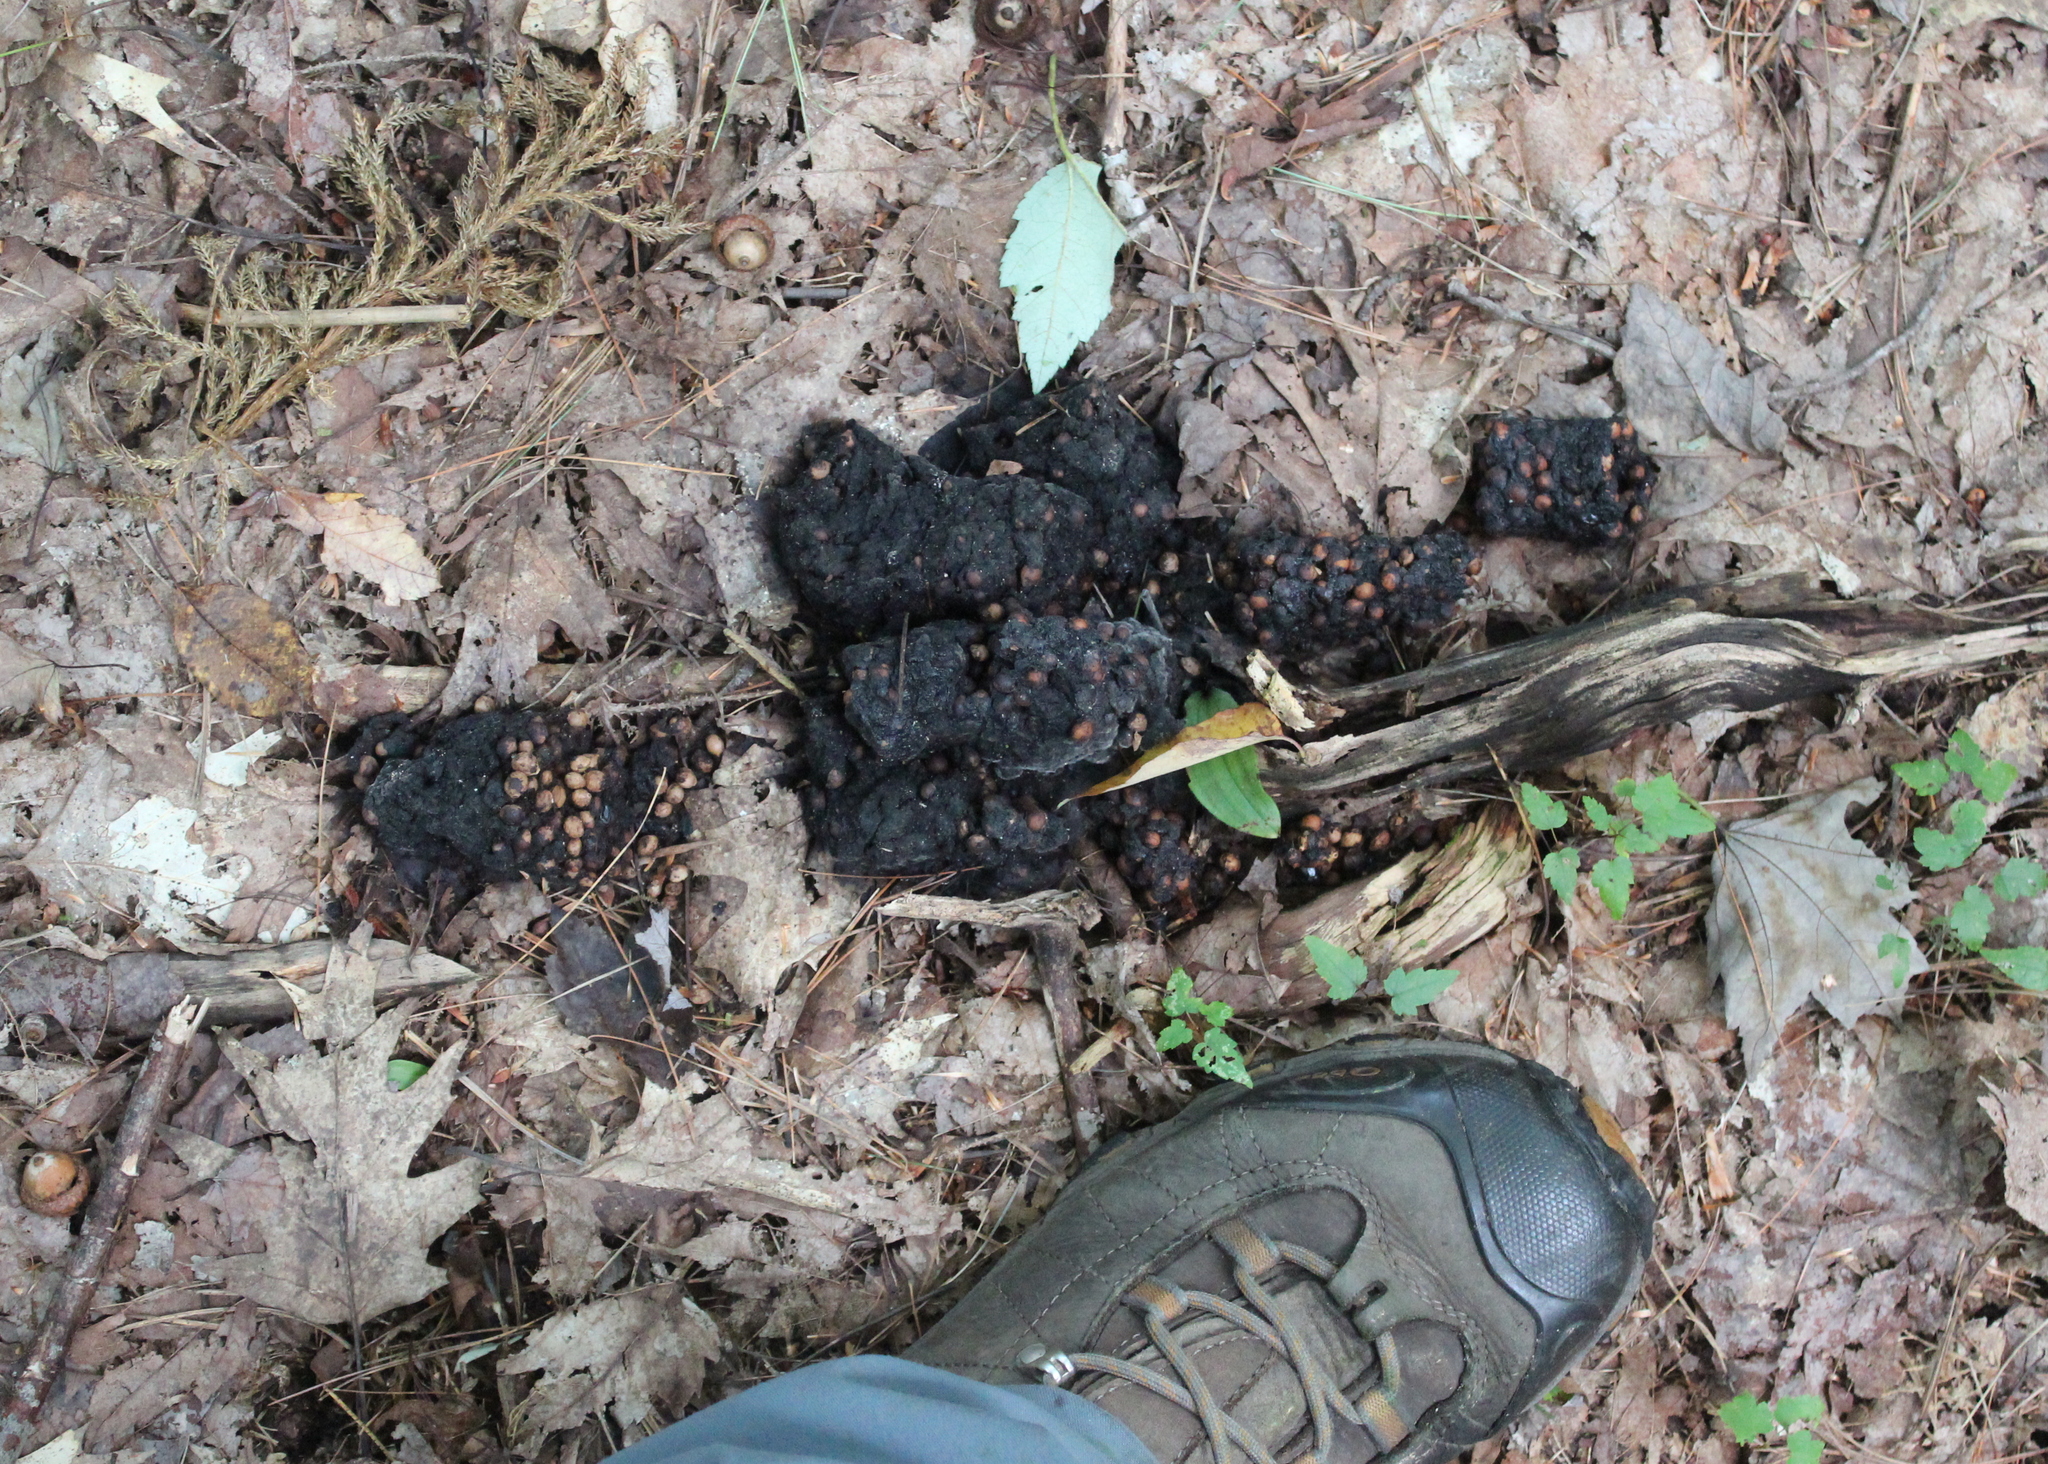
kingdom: Animalia
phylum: Chordata
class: Mammalia
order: Carnivora
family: Ursidae
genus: Ursus
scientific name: Ursus americanus
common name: American black bear
